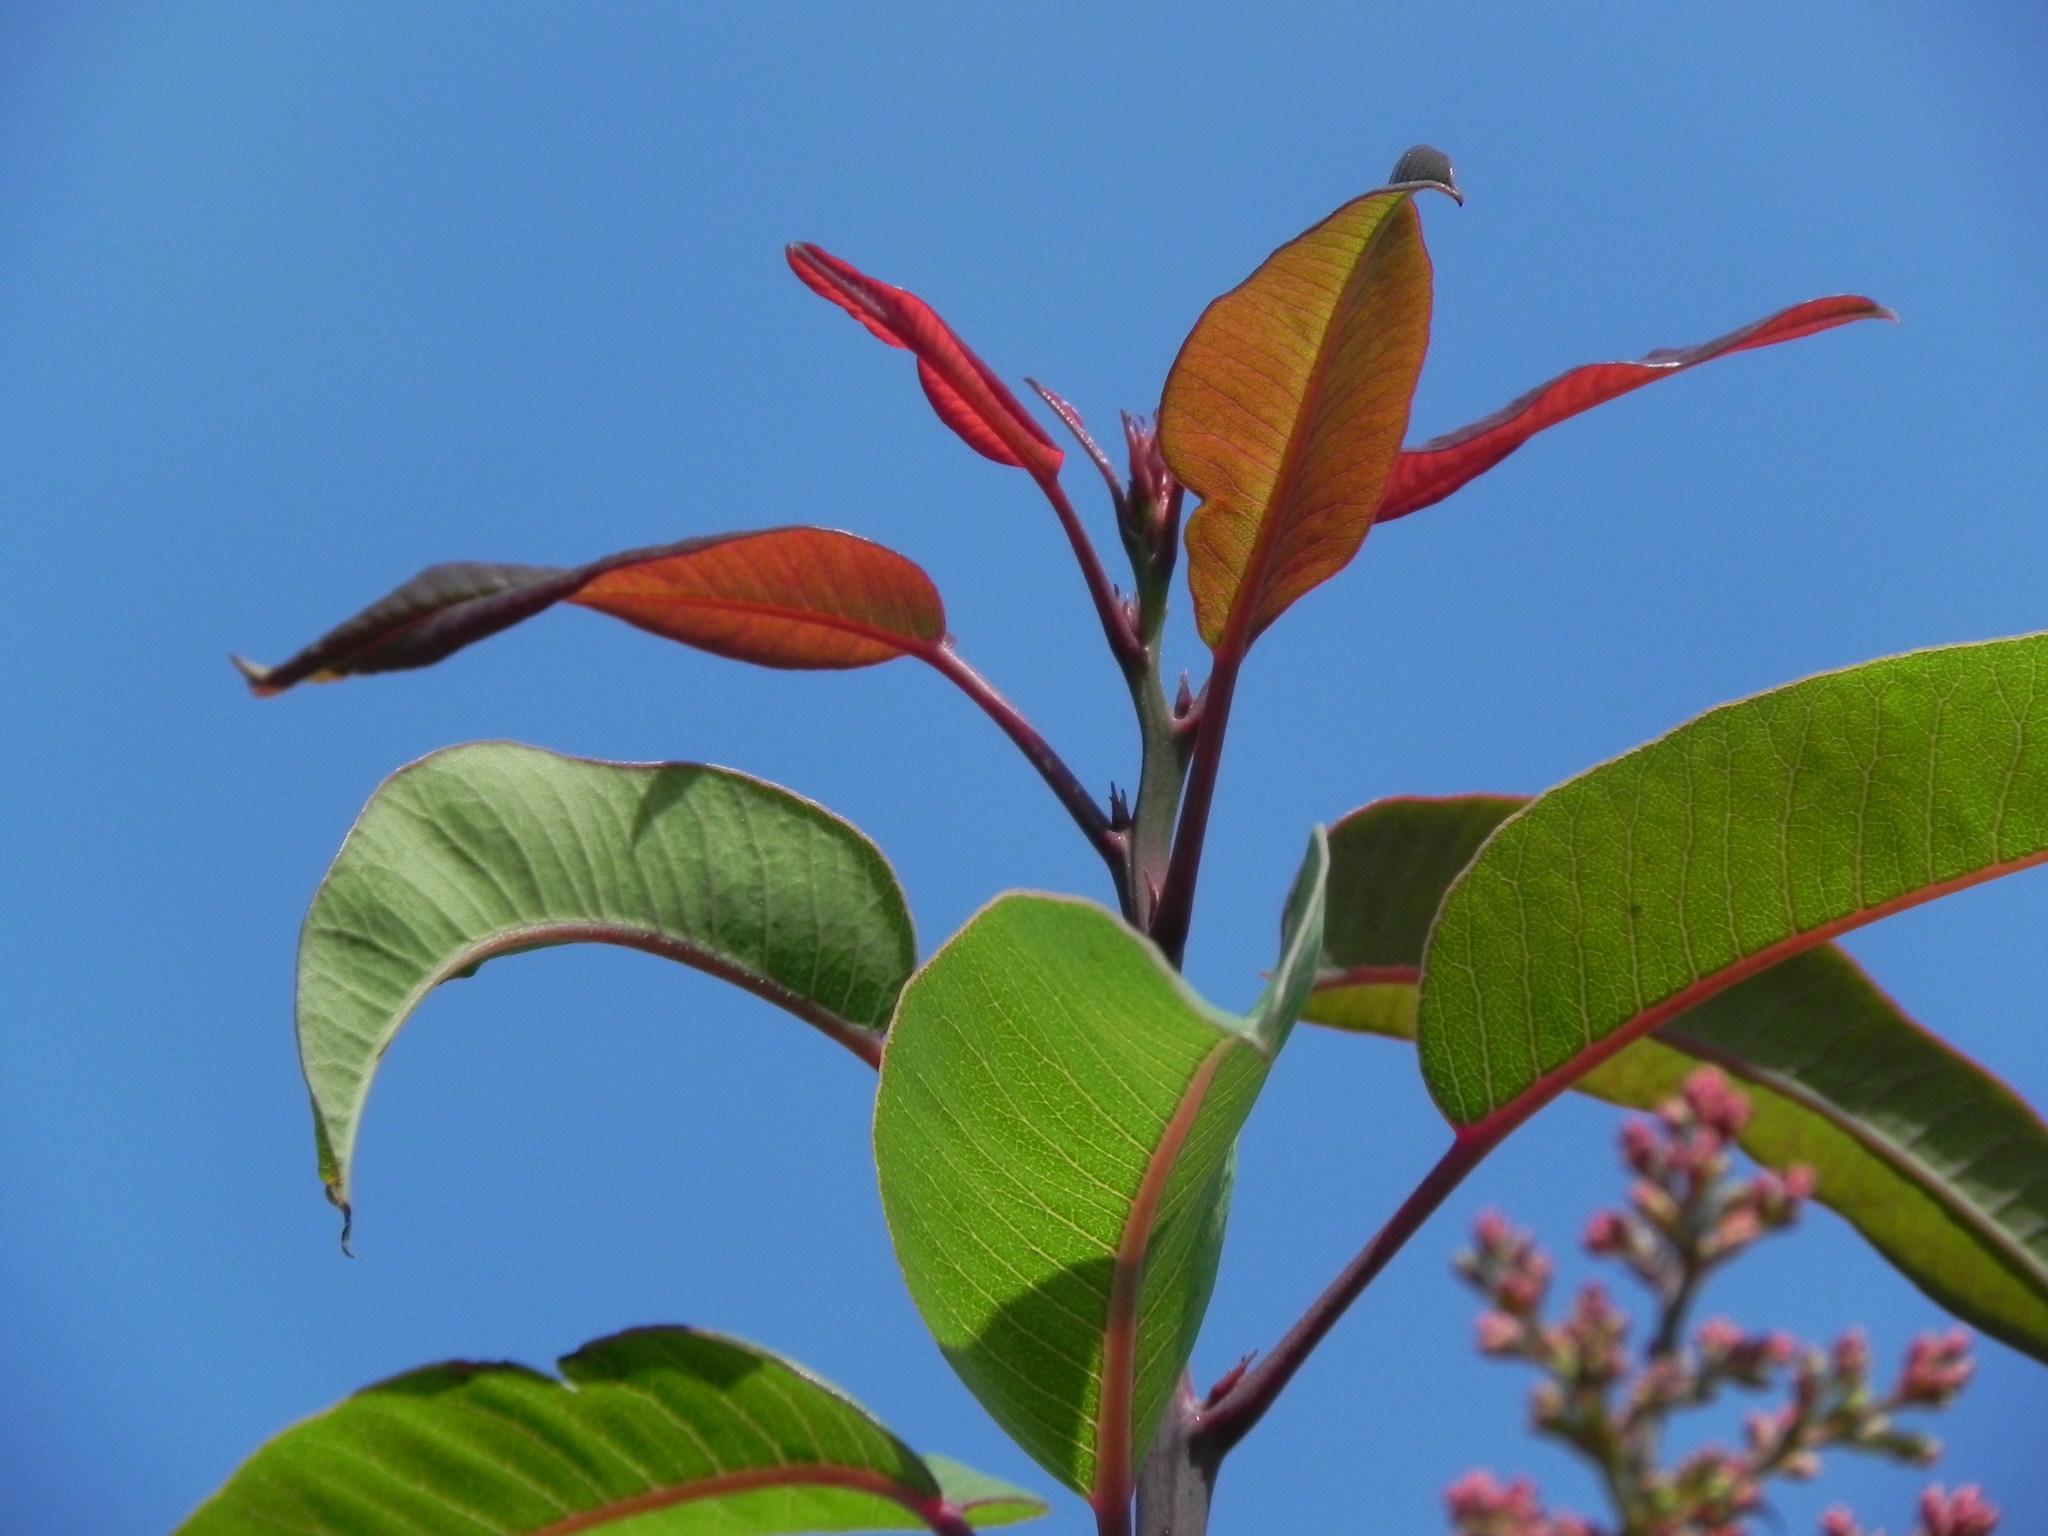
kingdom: Plantae
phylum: Tracheophyta
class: Magnoliopsida
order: Sapindales
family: Anacardiaceae
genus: Malosma
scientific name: Malosma laurina
